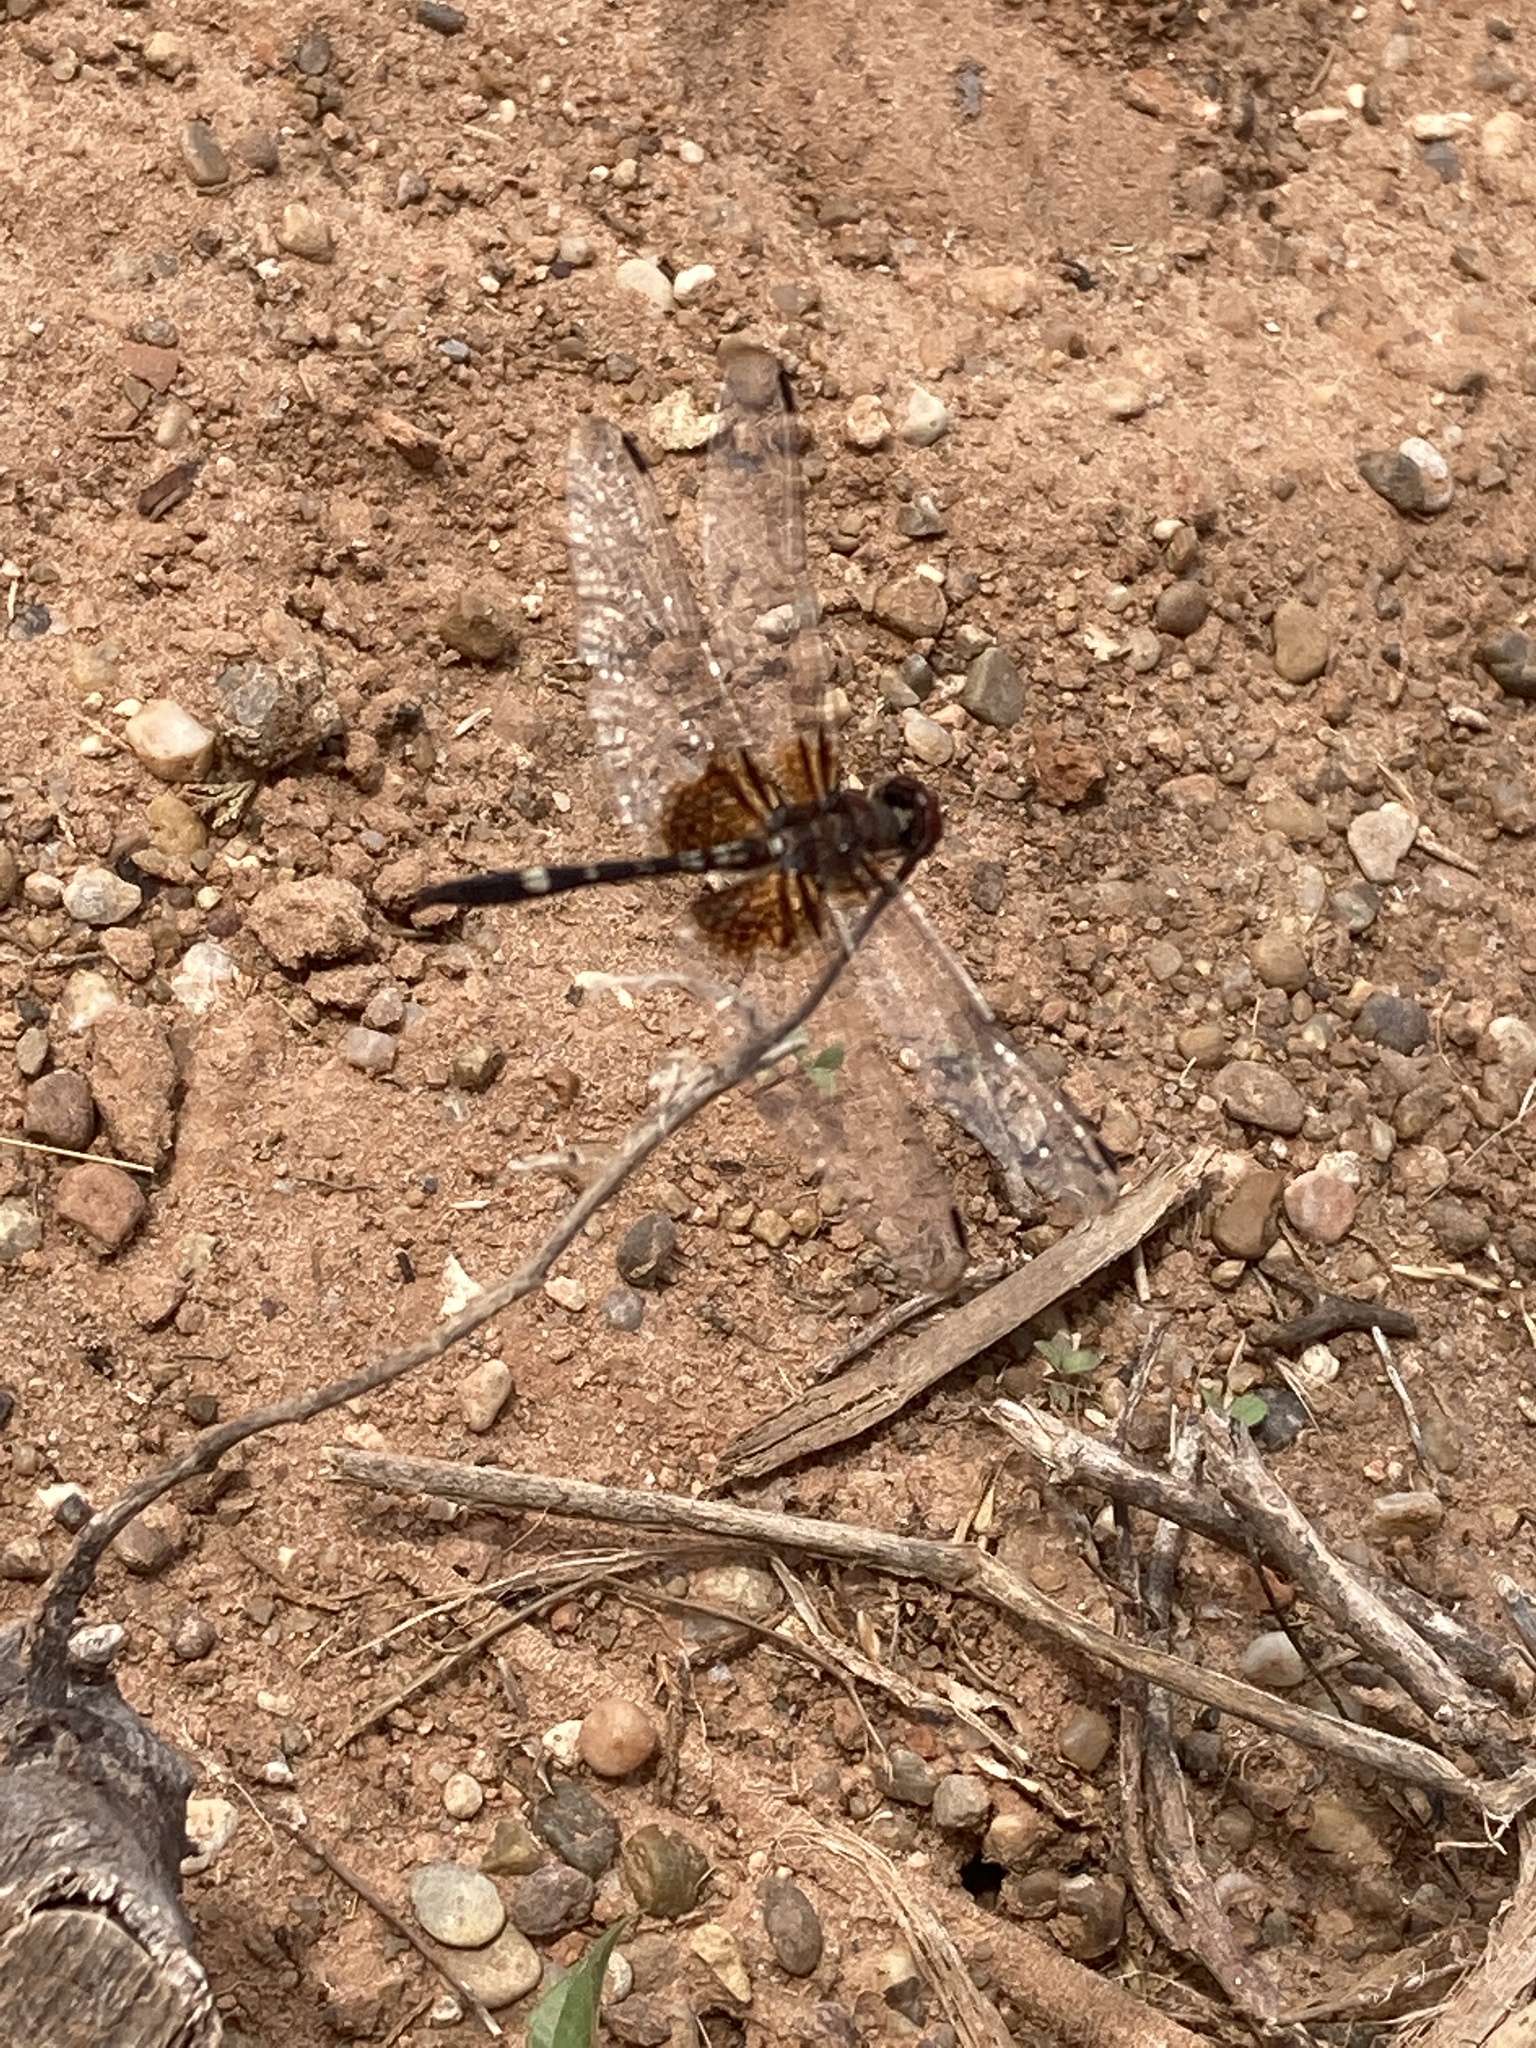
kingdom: Animalia
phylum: Arthropoda
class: Insecta
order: Odonata
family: Libellulidae
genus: Dythemis
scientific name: Dythemis fugax
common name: Checkered setwing
